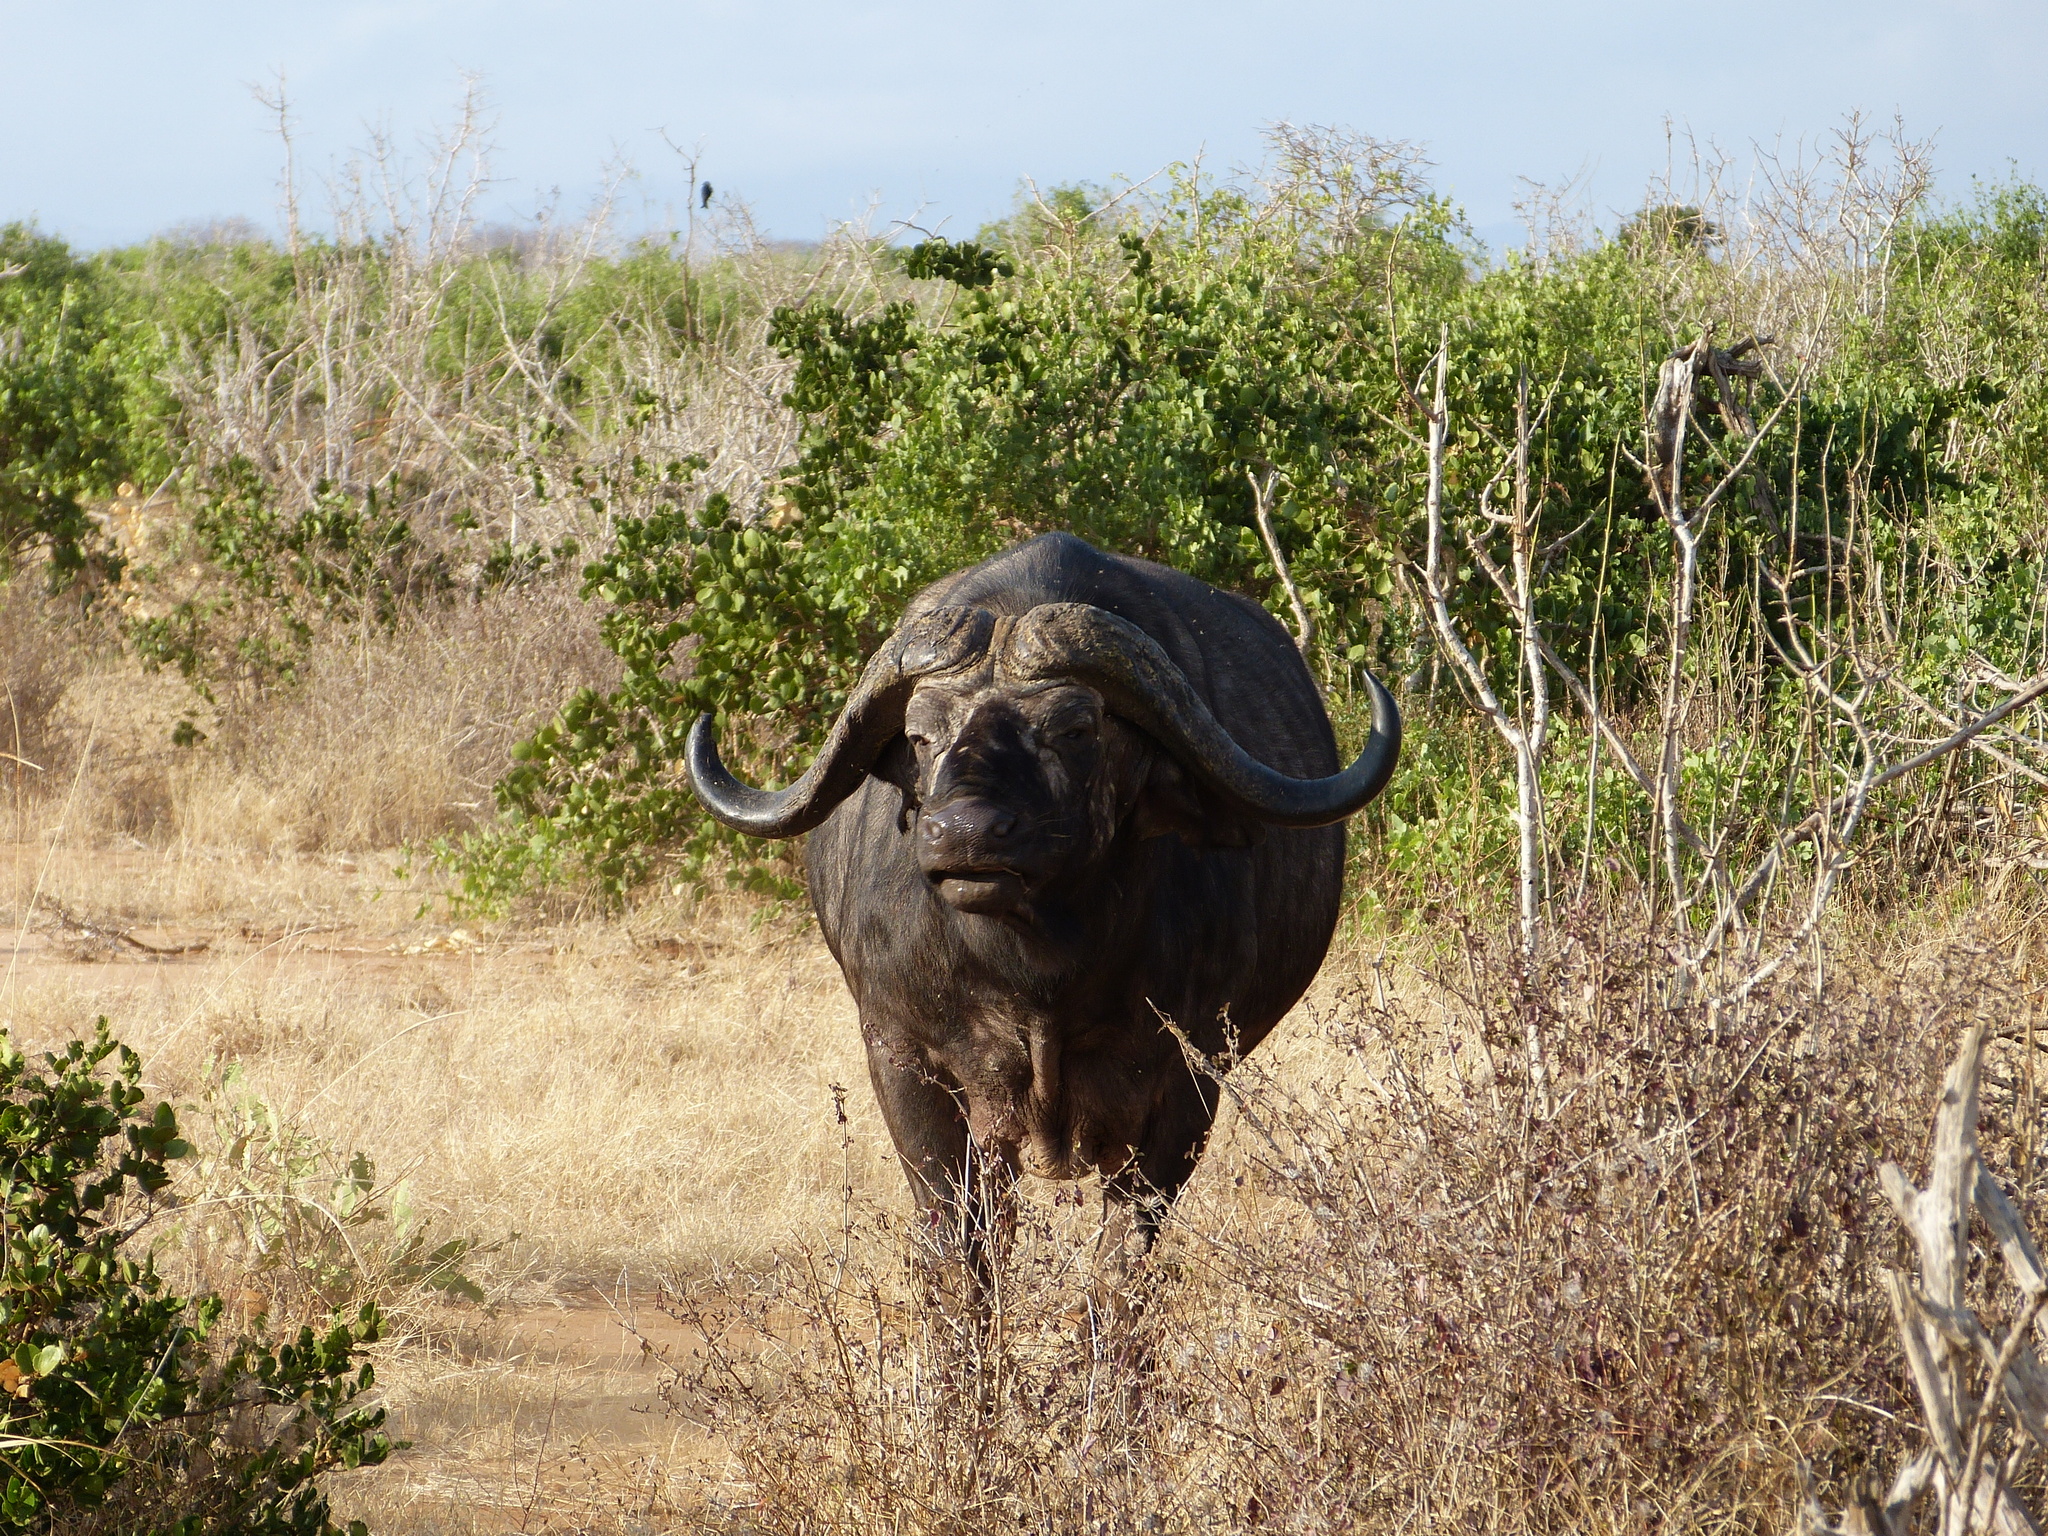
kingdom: Animalia
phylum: Chordata
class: Mammalia
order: Artiodactyla
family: Bovidae
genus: Syncerus
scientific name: Syncerus caffer
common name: African buffalo
